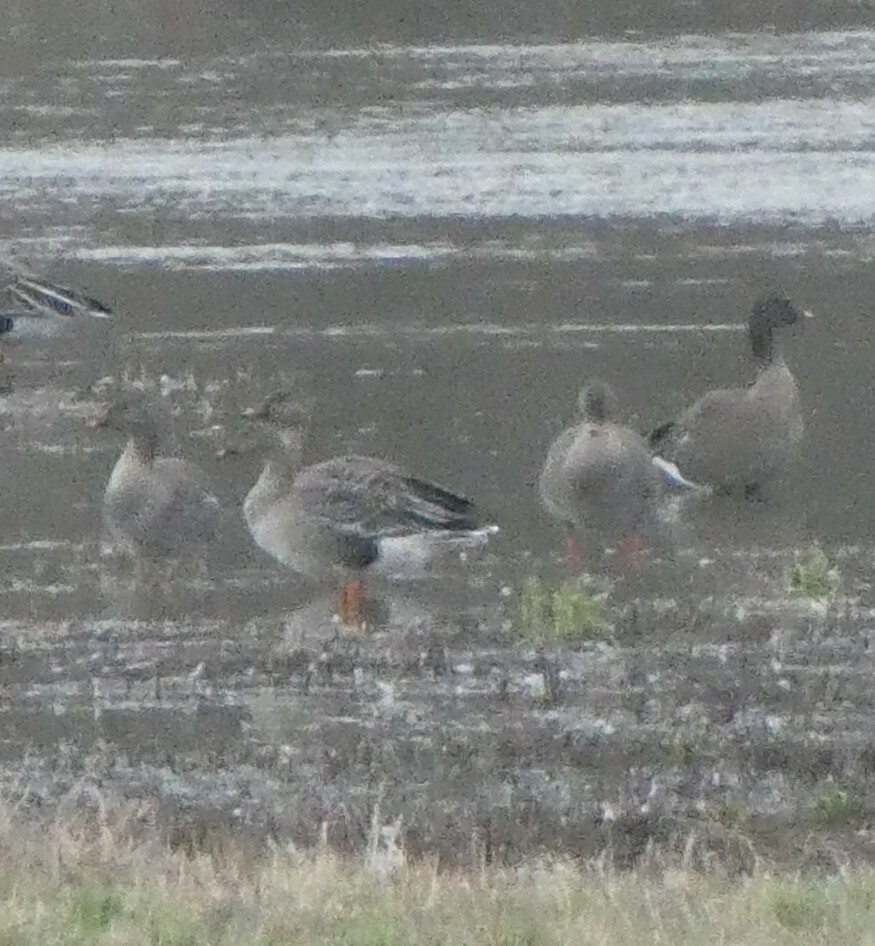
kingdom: Animalia
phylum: Chordata
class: Aves
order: Anseriformes
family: Anatidae
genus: Anser
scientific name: Anser serrirostris
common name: Tundra bean goose
